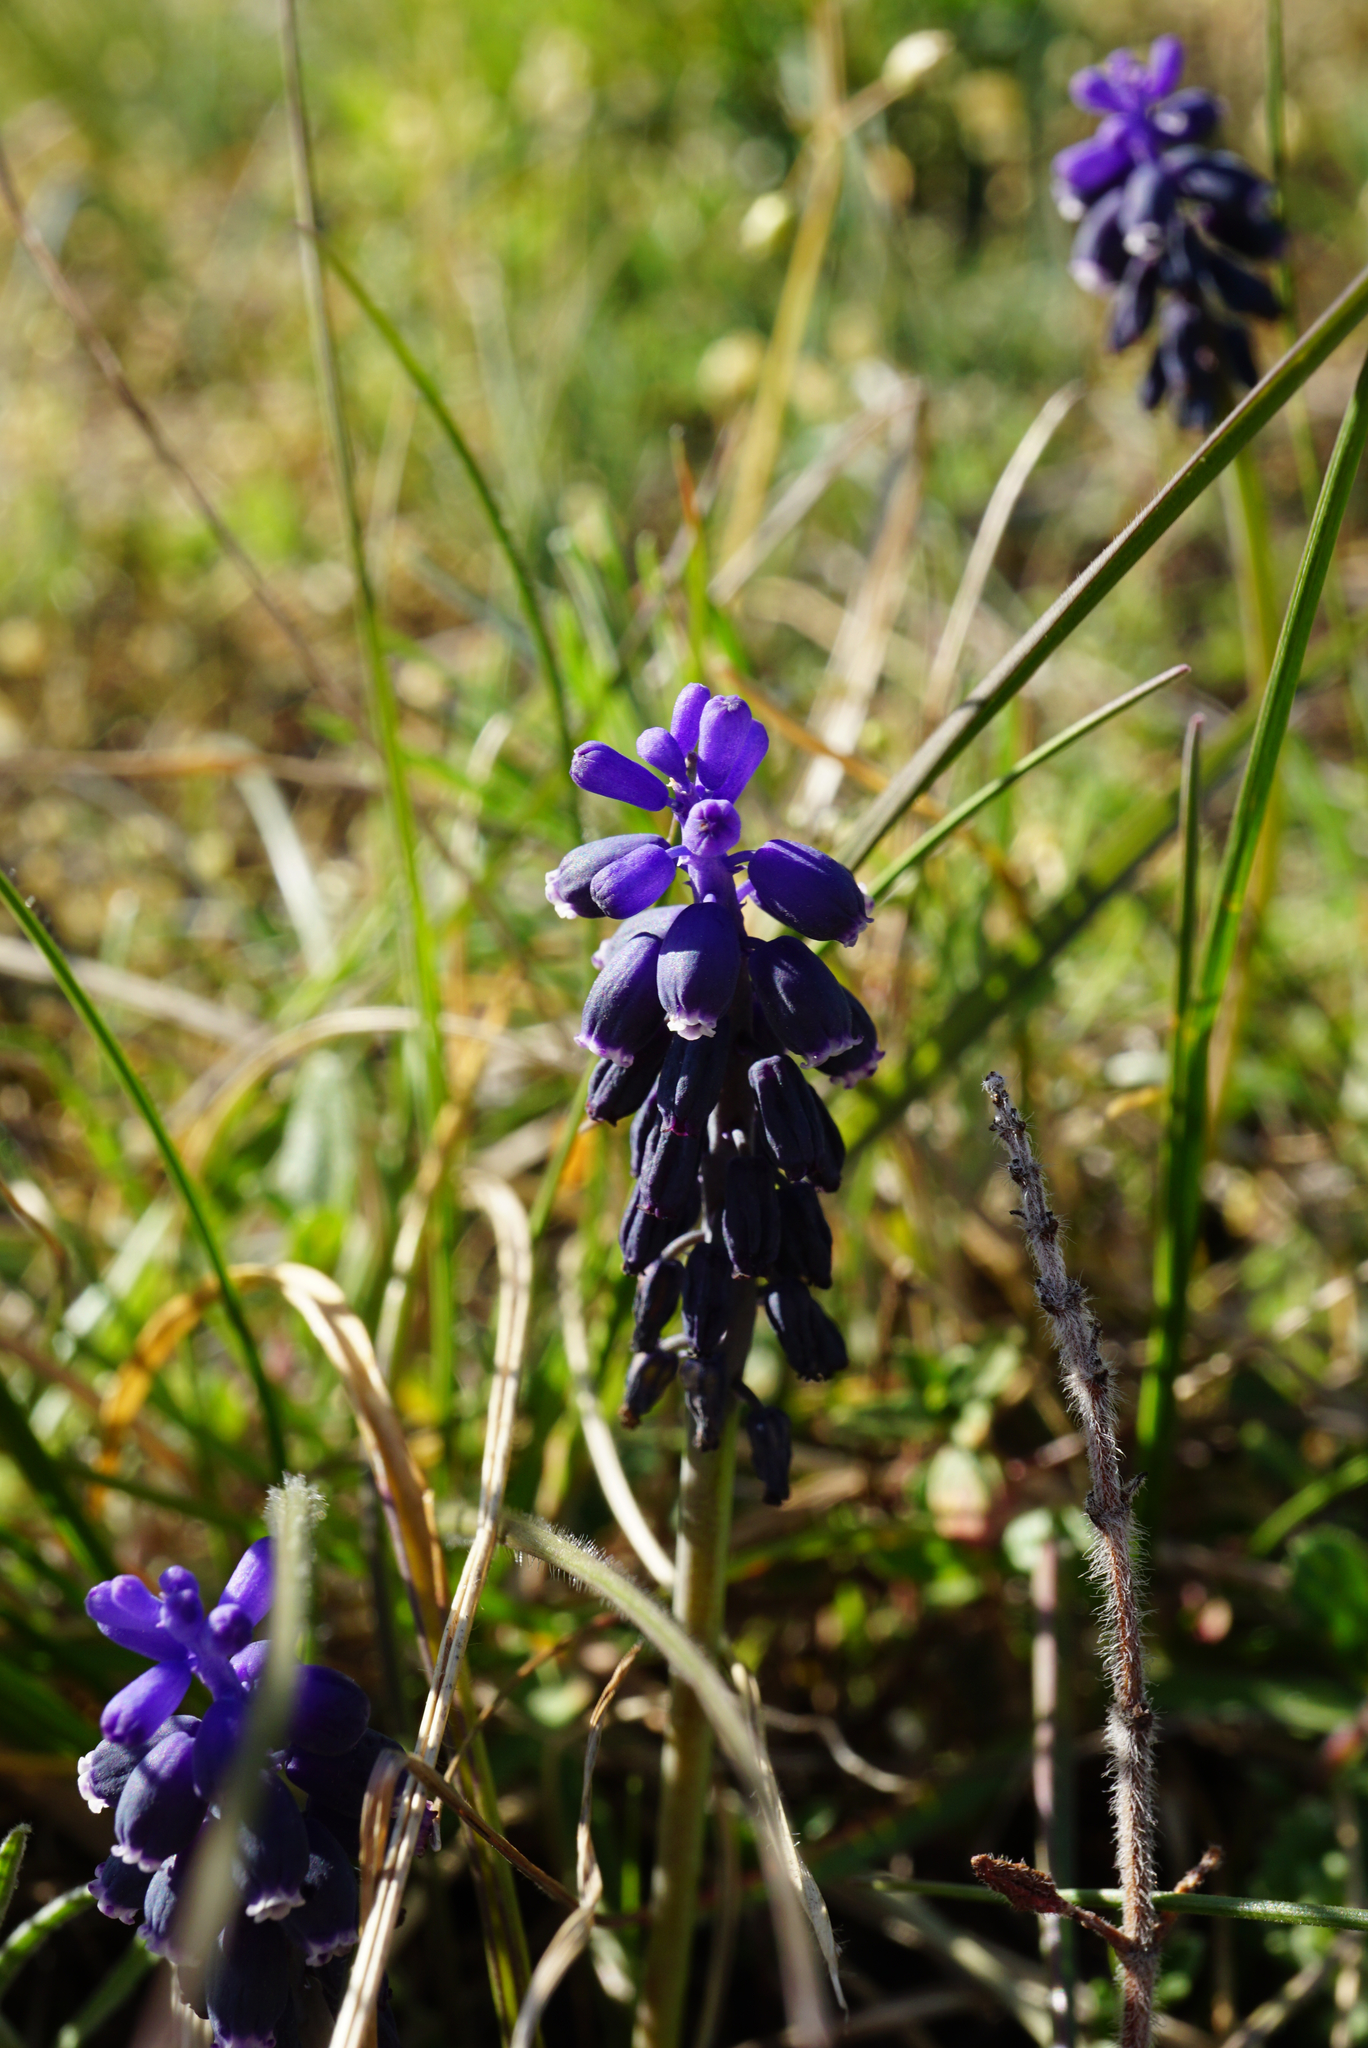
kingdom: Plantae
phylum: Tracheophyta
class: Liliopsida
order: Asparagales
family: Asparagaceae
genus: Muscari
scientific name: Muscari neglectum
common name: Grape-hyacinth
